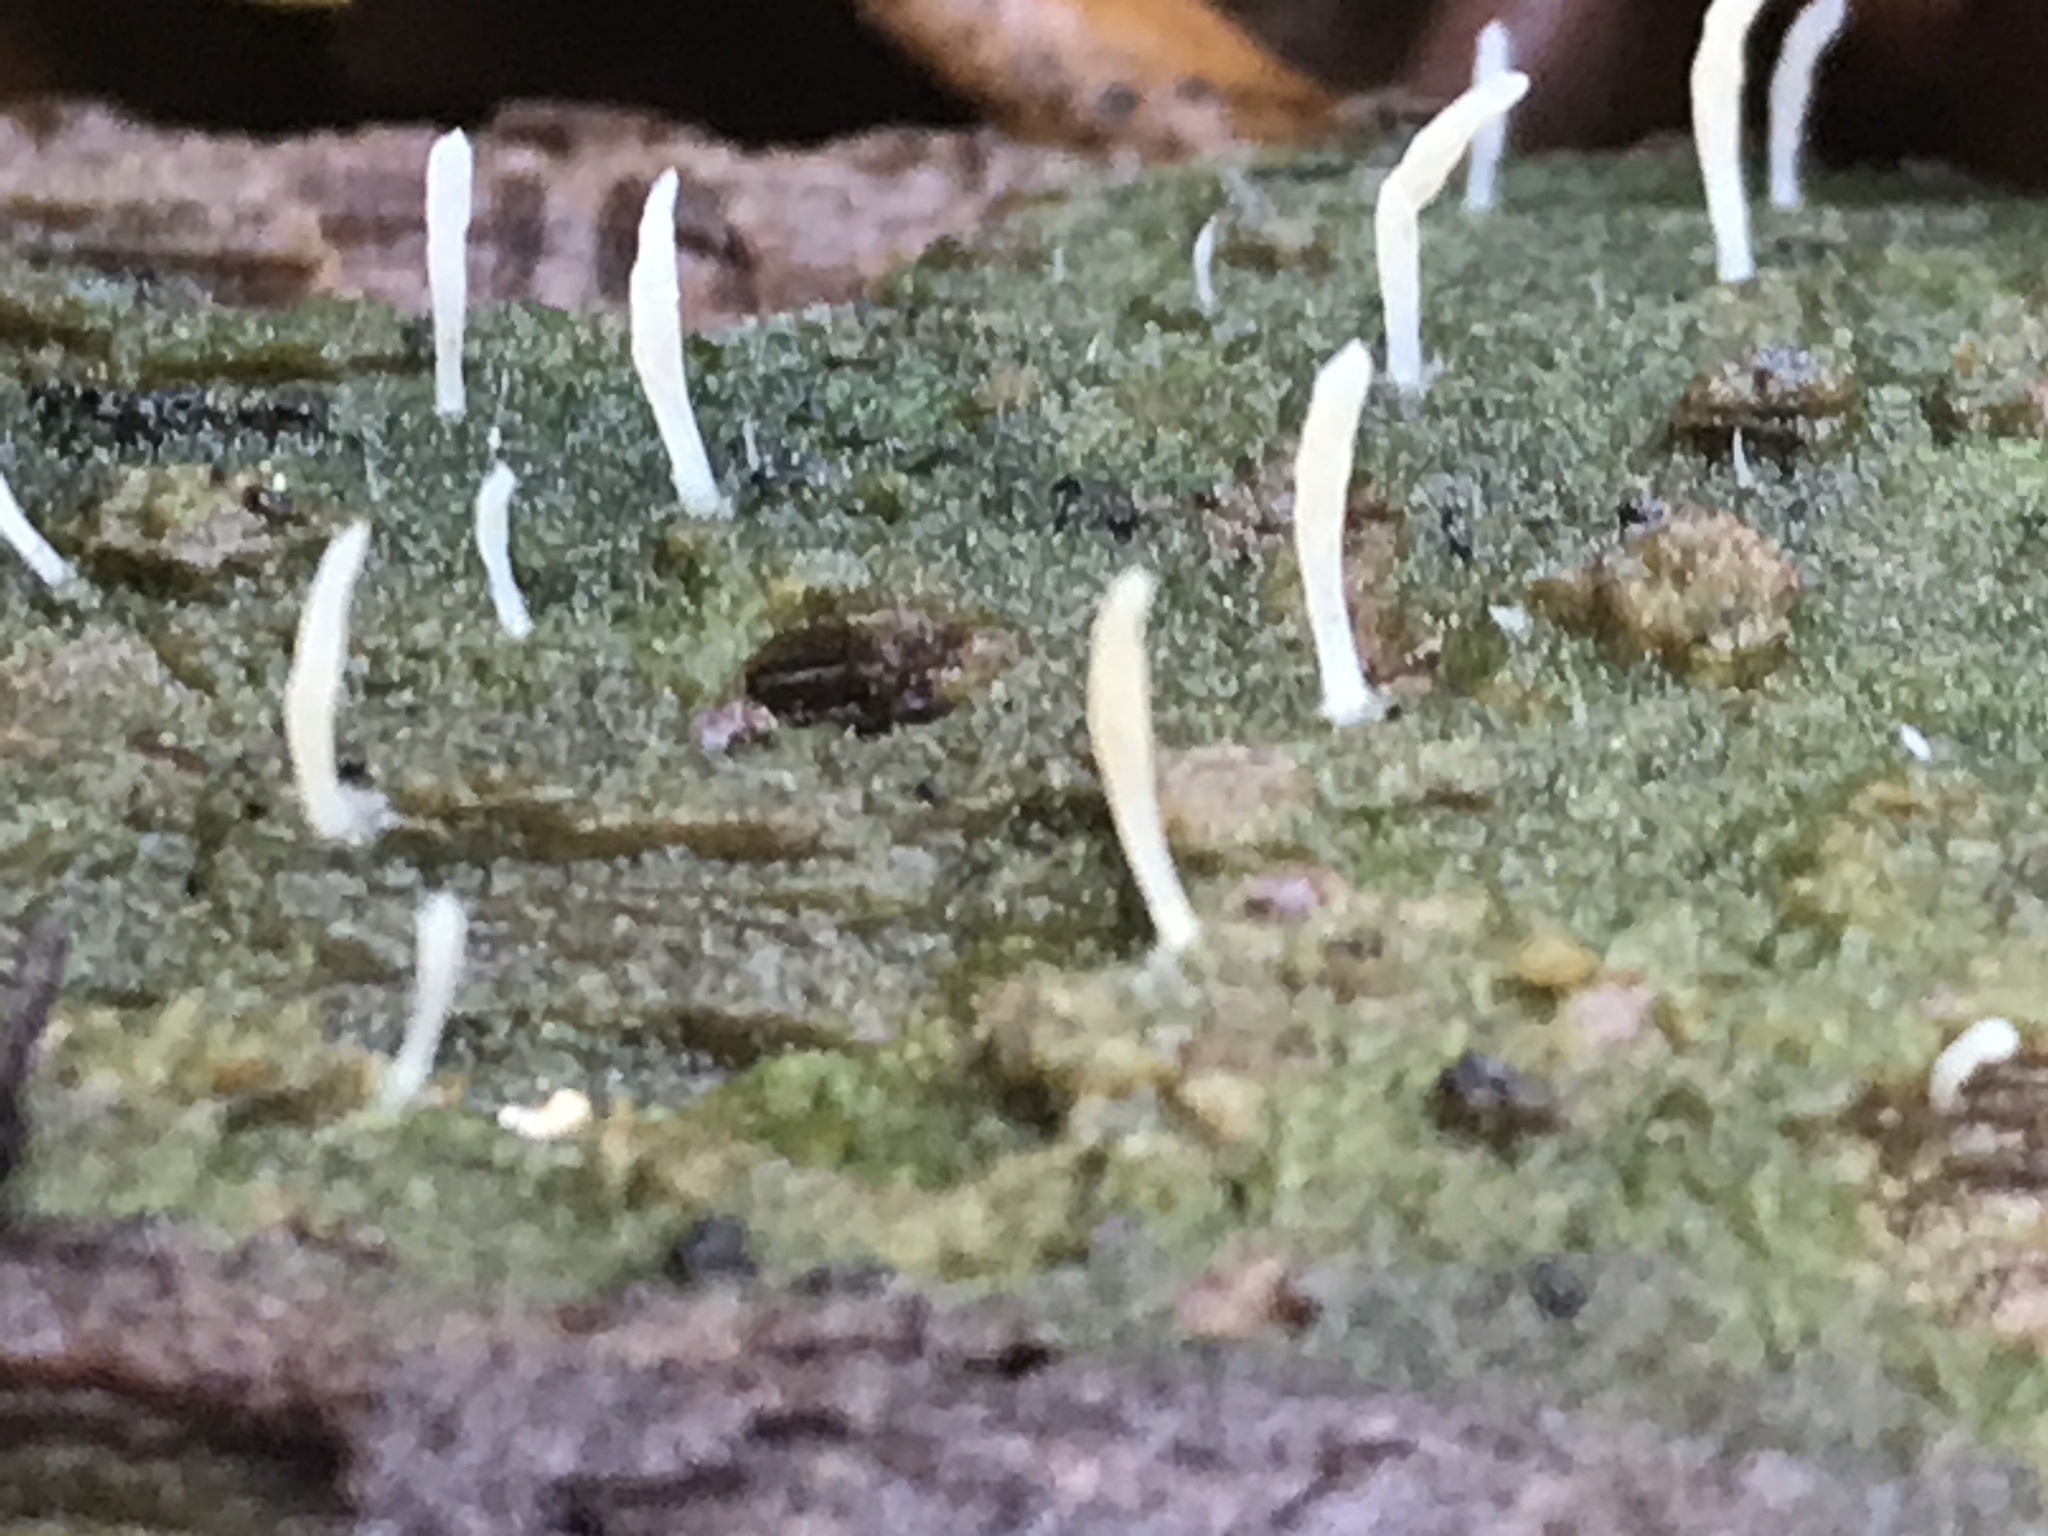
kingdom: Fungi
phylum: Basidiomycota
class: Agaricomycetes
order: Cantharellales
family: Hydnaceae
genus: Multiclavula
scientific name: Multiclavula mucida
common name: White green-algae coral
